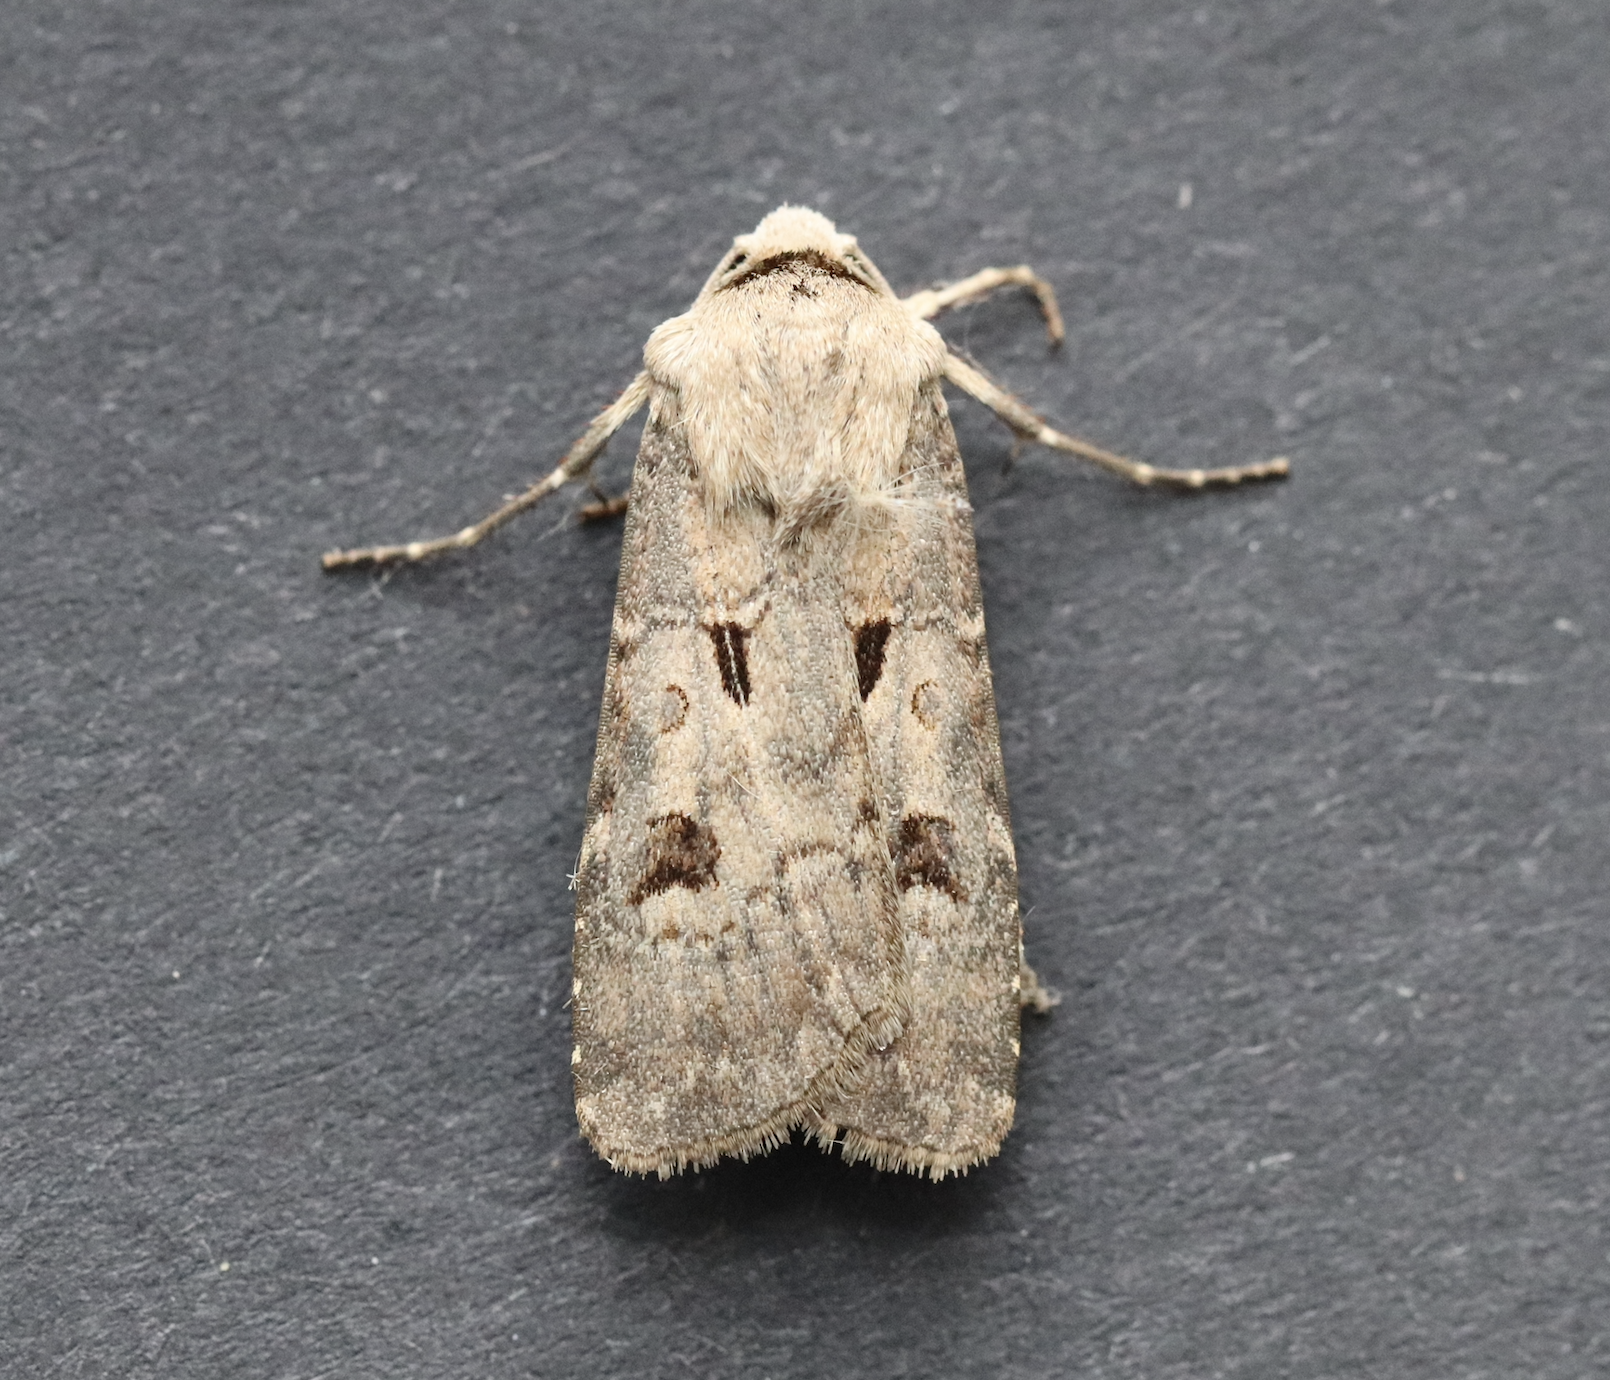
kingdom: Animalia
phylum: Arthropoda
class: Insecta
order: Lepidoptera
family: Noctuidae
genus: Agrotis
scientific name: Agrotis exclamationis
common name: Heart and dart
